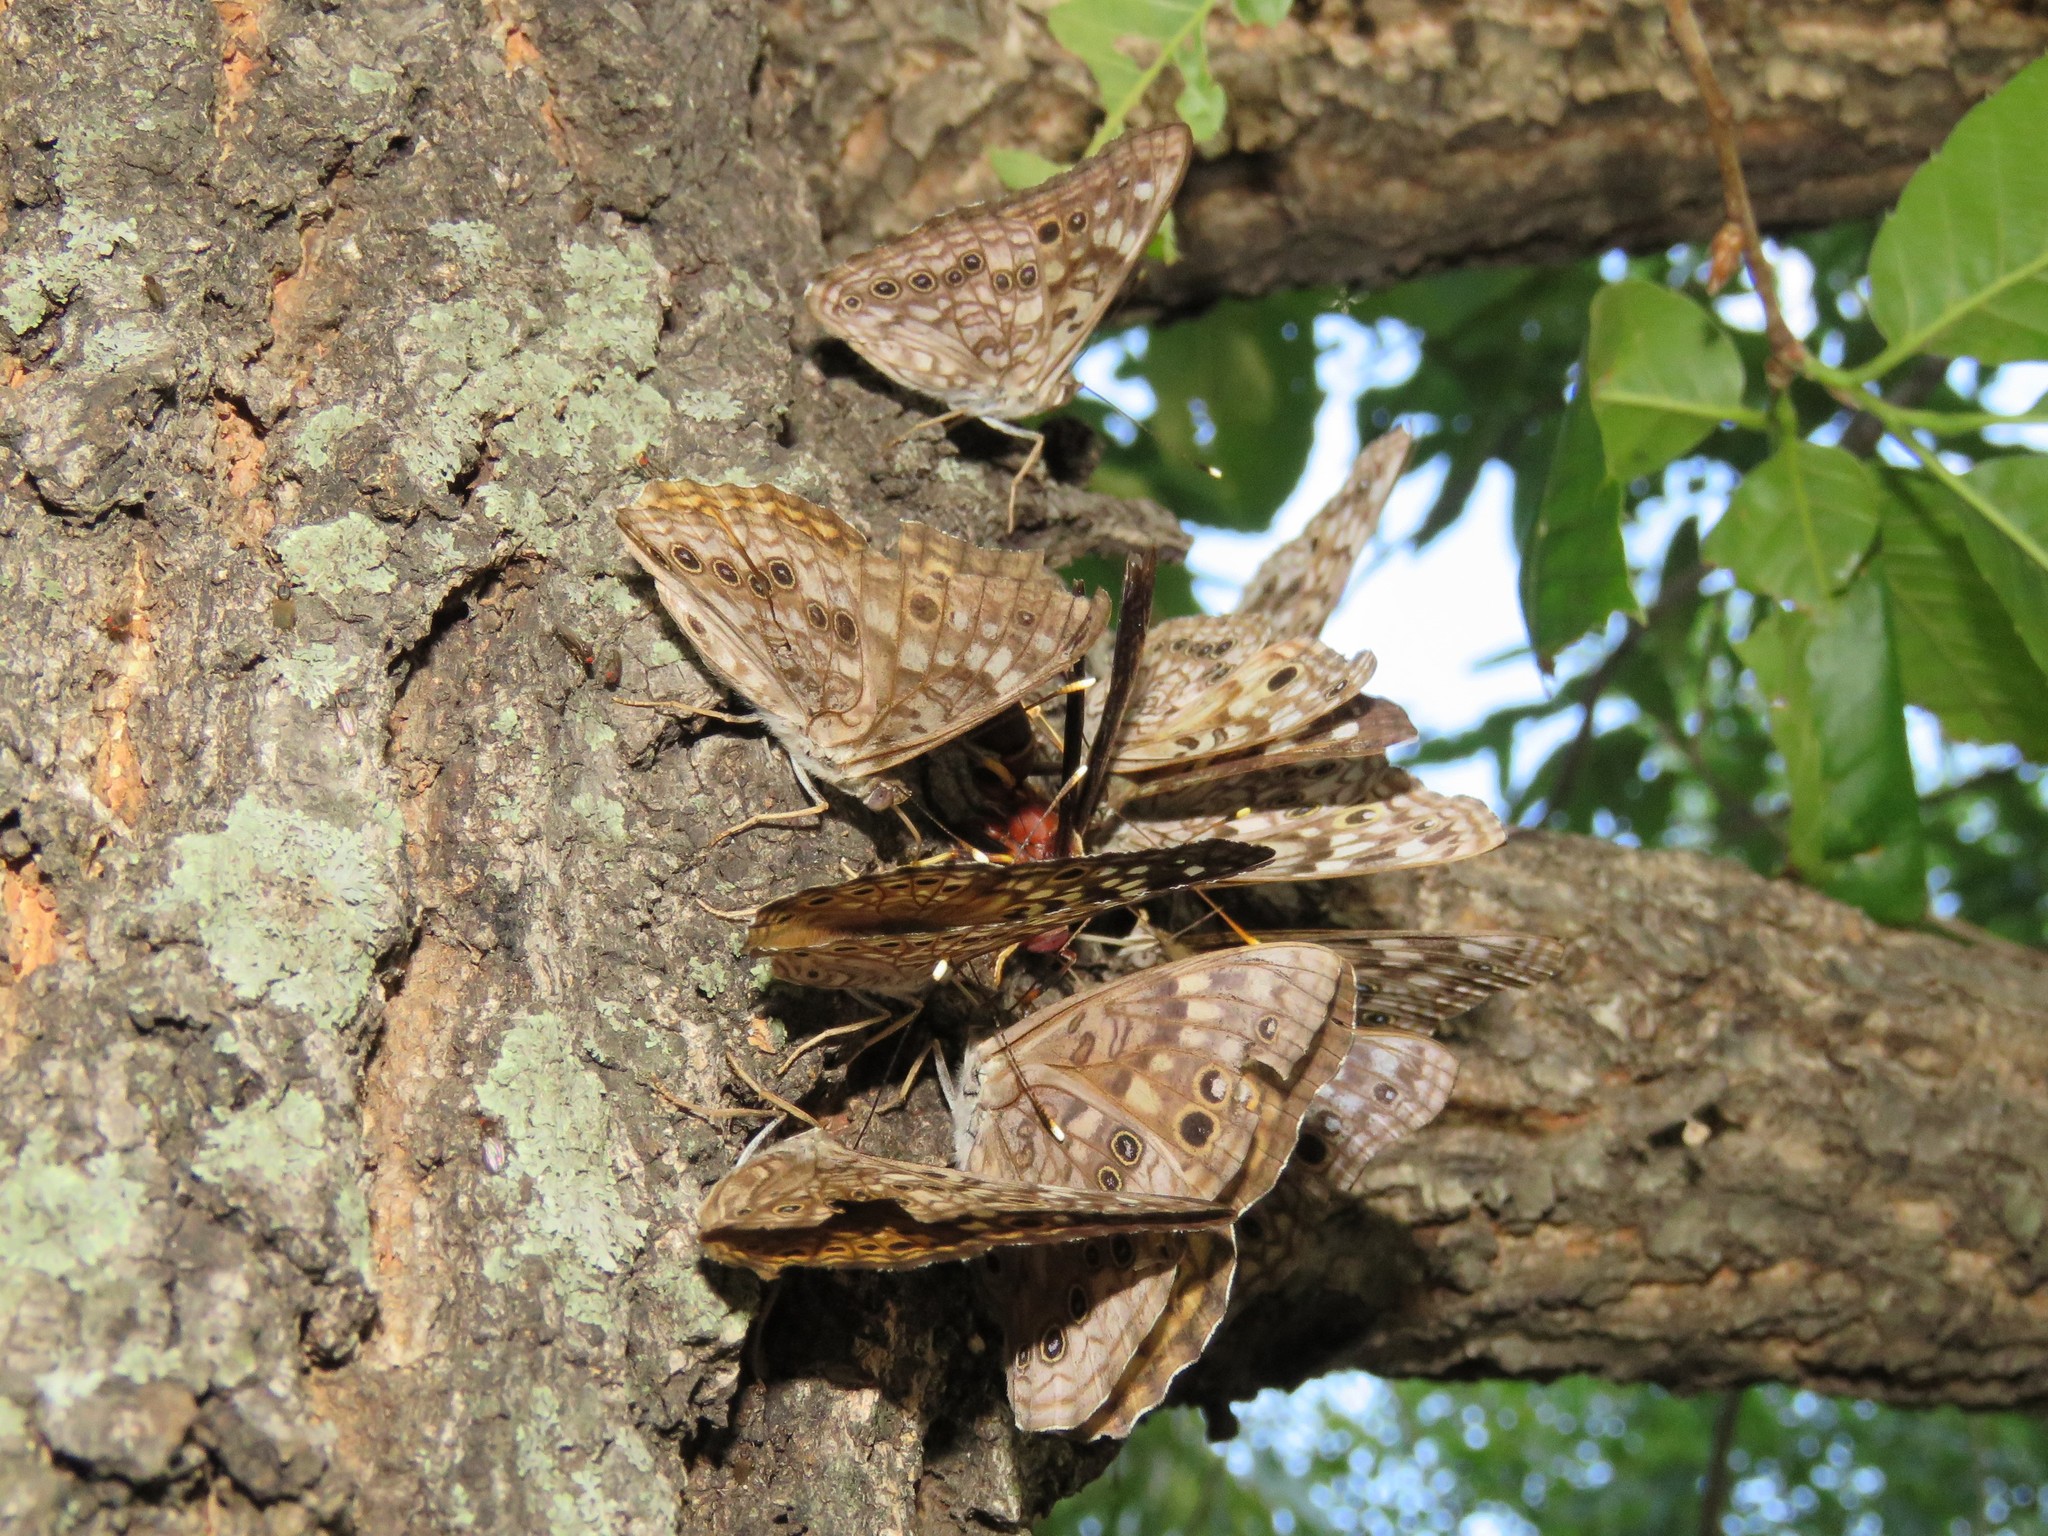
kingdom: Animalia
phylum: Arthropoda
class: Insecta
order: Lepidoptera
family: Nymphalidae
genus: Asterocampa
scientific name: Asterocampa celtis
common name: Hackberry emperor
